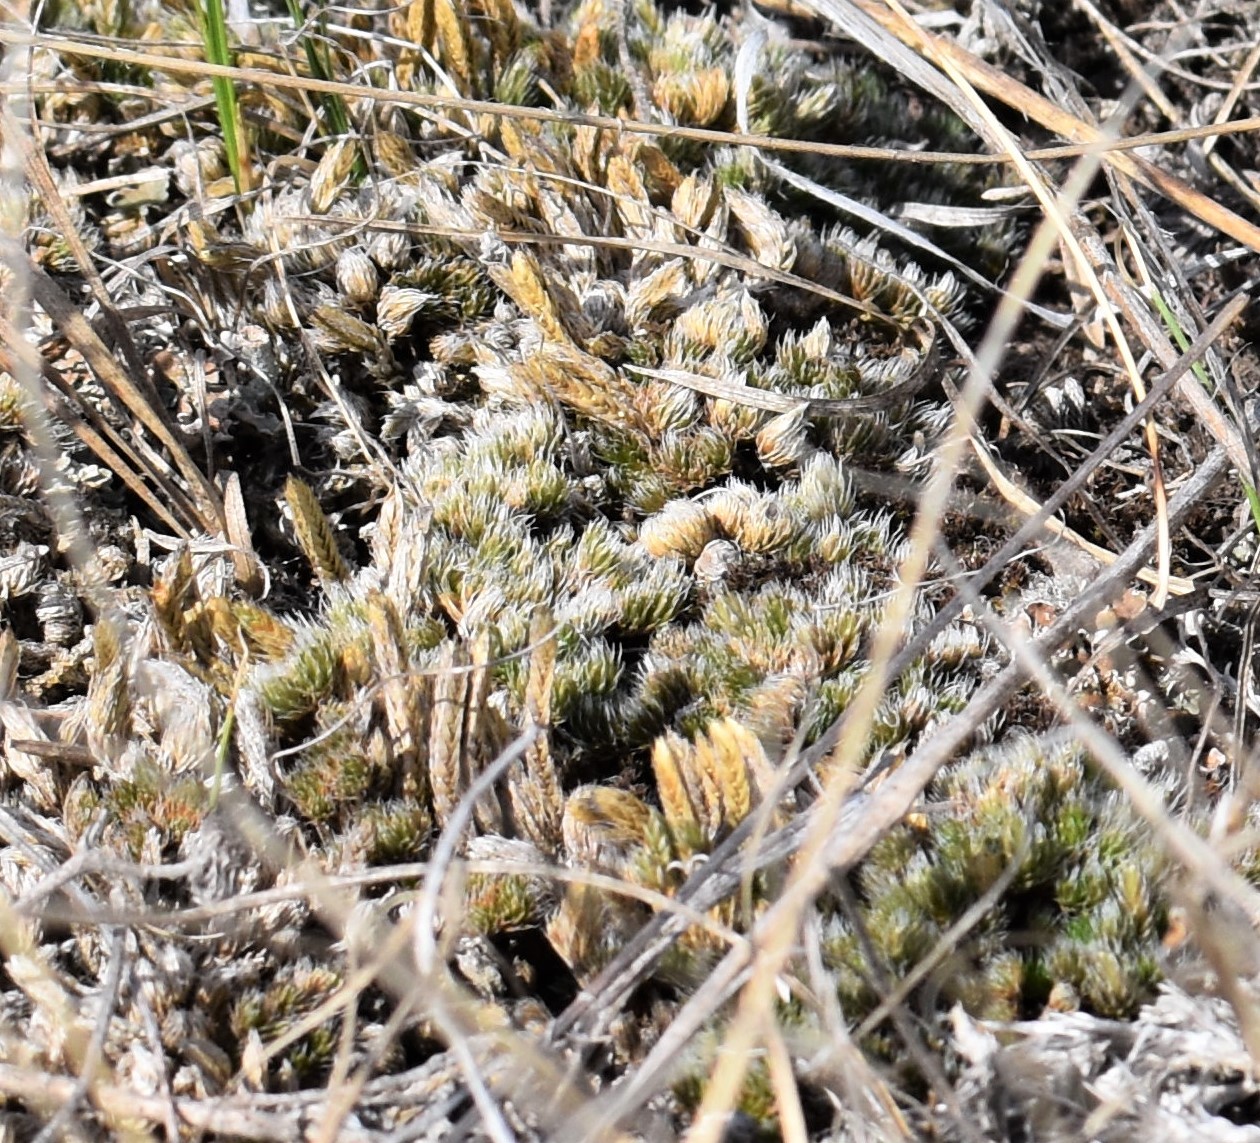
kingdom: Plantae
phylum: Tracheophyta
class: Lycopodiopsida
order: Selaginellales
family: Selaginellaceae
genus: Selaginella
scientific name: Selaginella densa
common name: Mountain spike-moss
